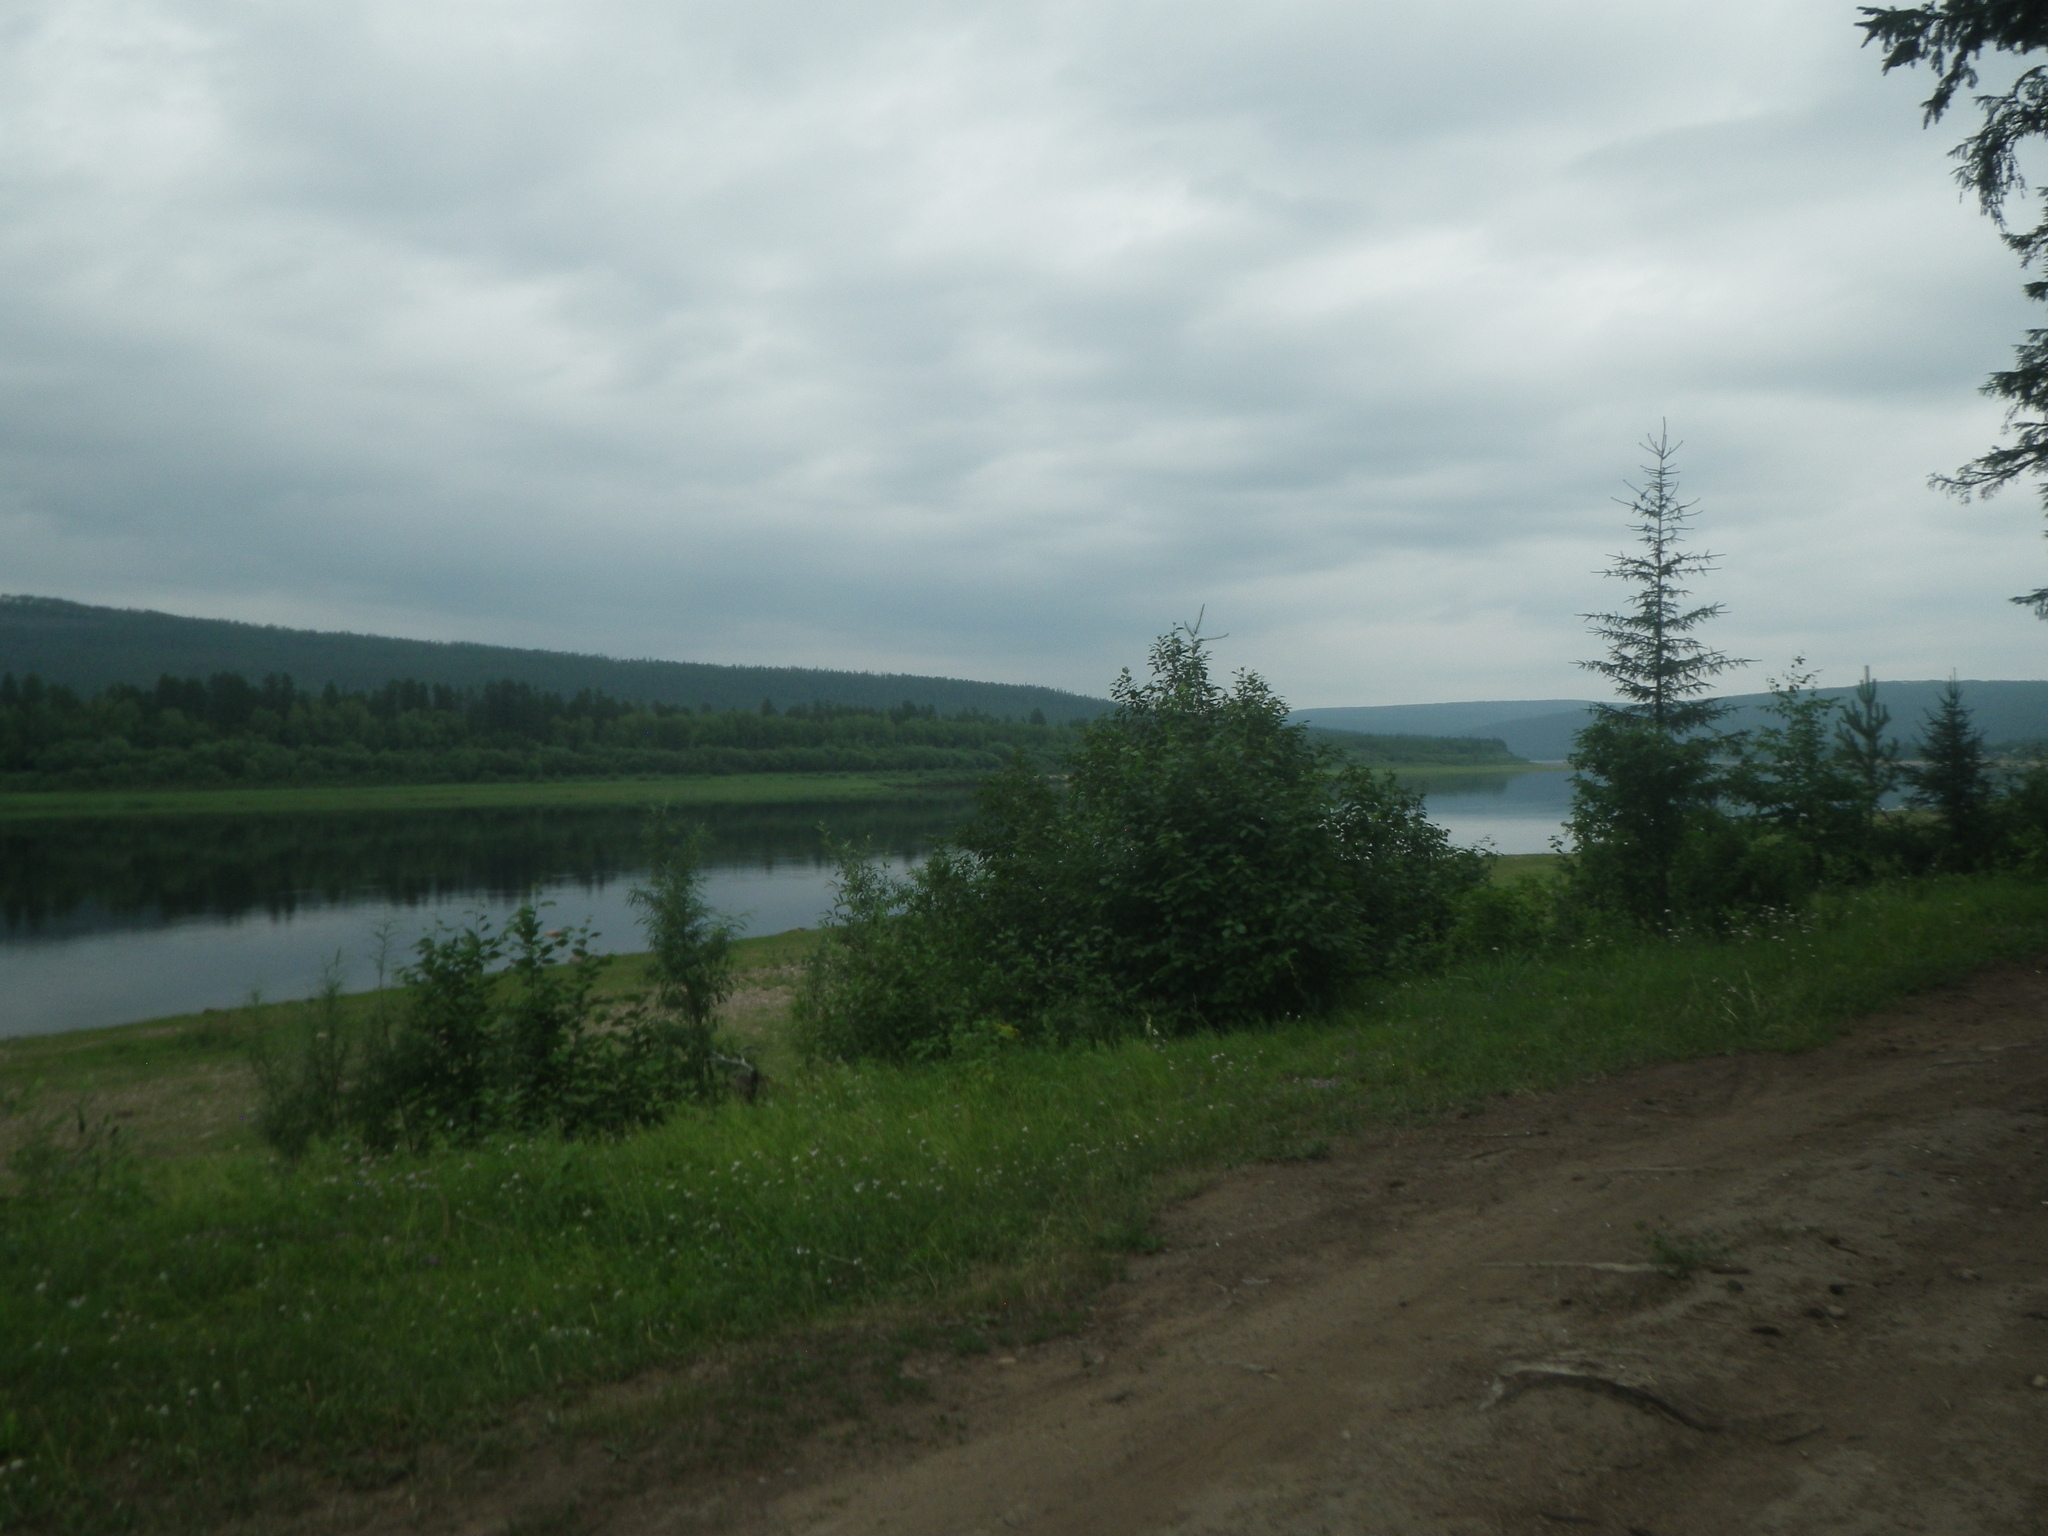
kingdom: Plantae
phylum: Tracheophyta
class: Pinopsida
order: Pinales
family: Pinaceae
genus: Larix
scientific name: Larix gmelinii
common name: Dahurian larch
